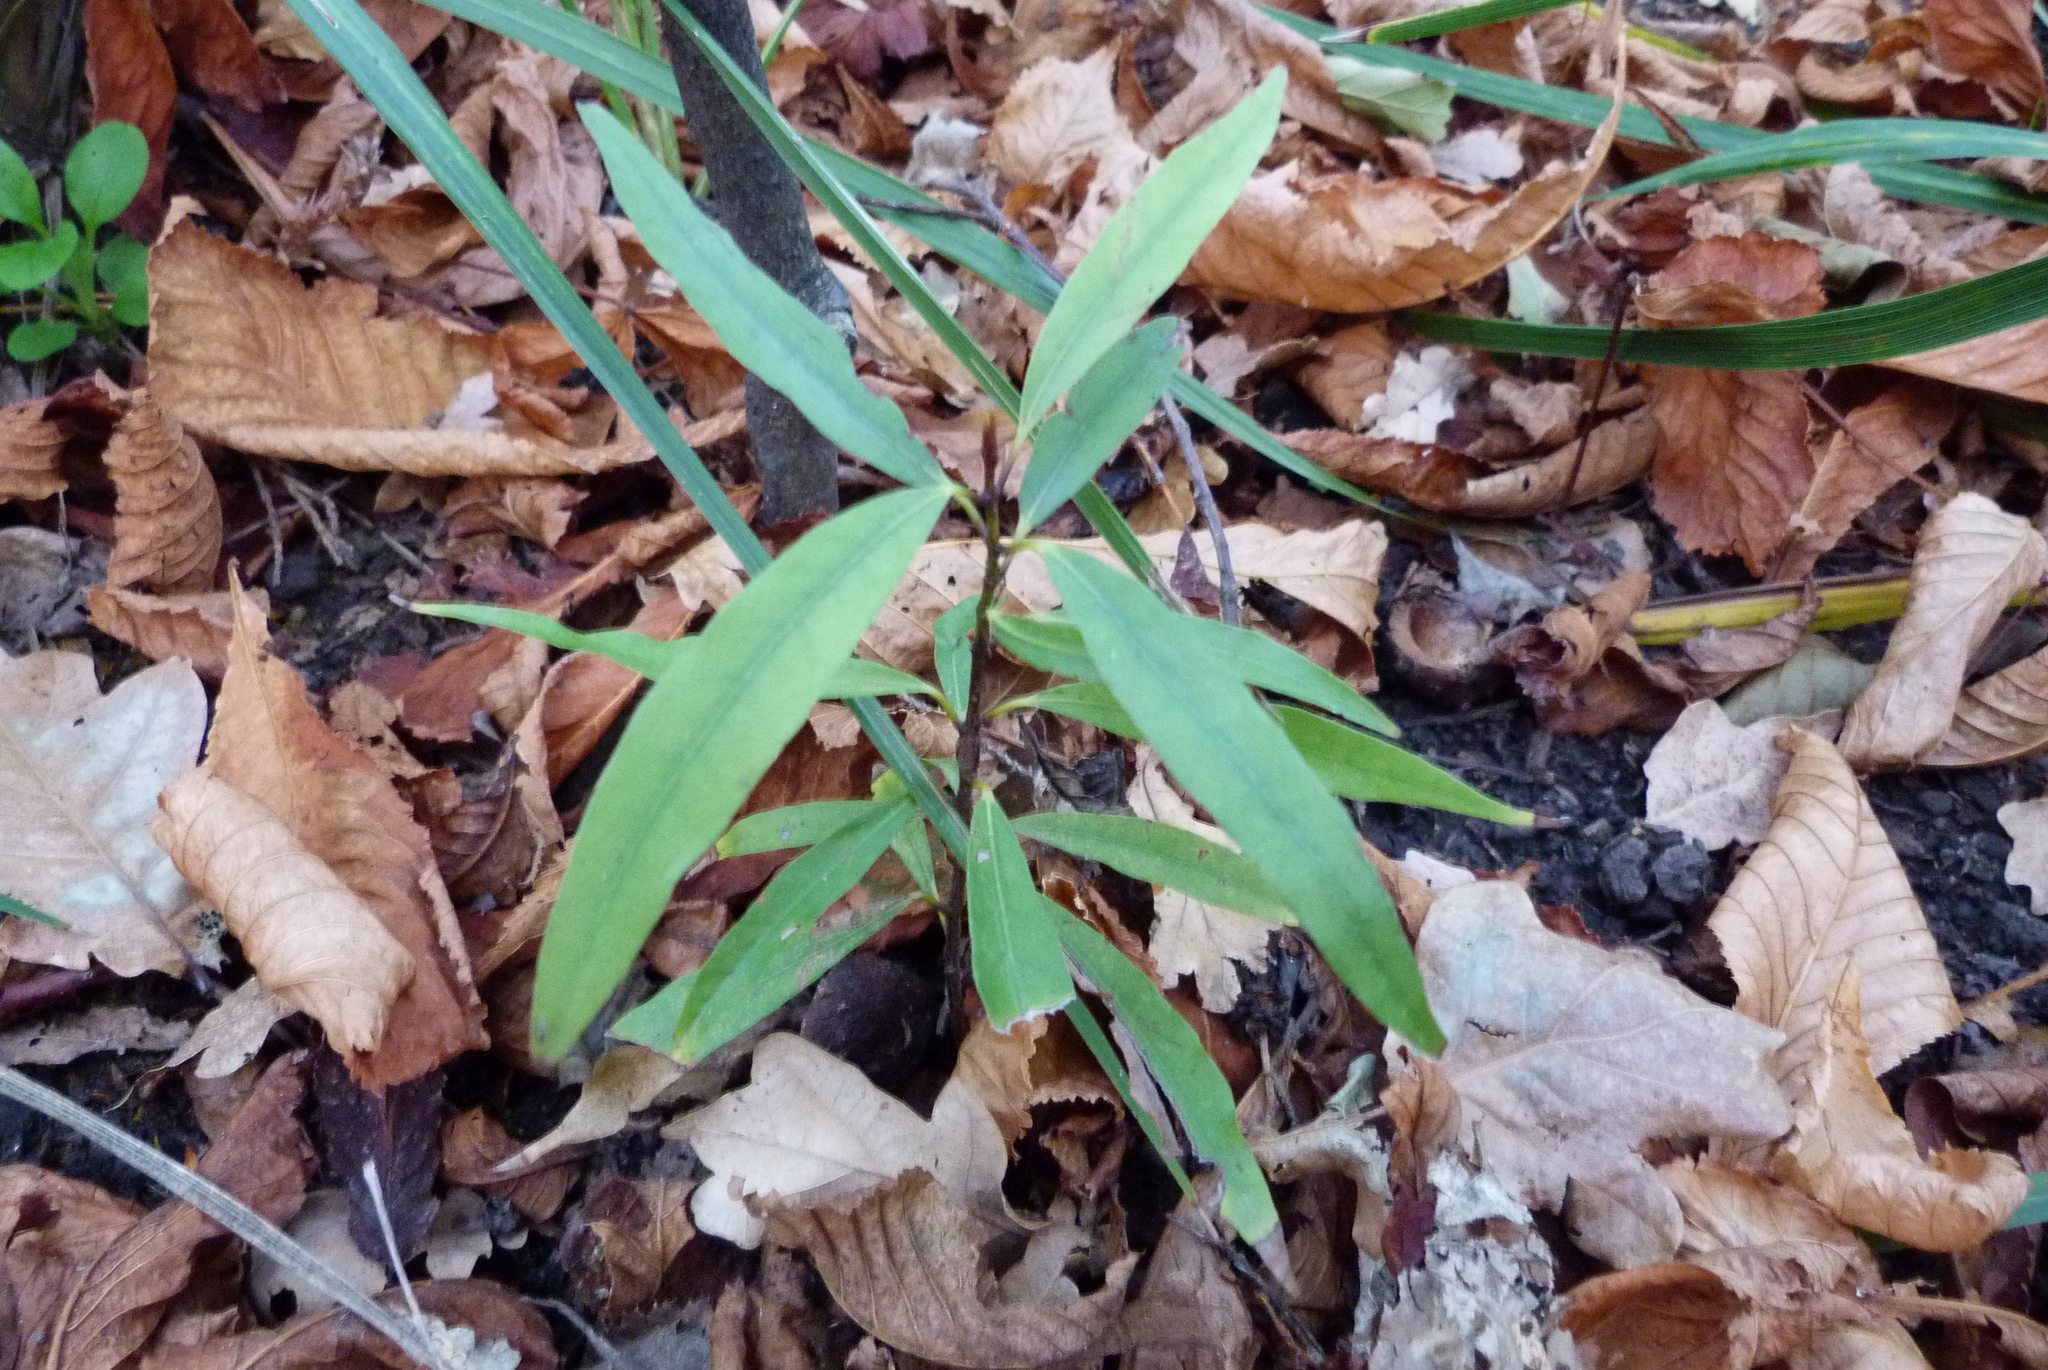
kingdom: Plantae
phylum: Tracheophyta
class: Magnoliopsida
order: Laurales
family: Lauraceae
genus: Beilschmiedia
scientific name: Beilschmiedia tawa
